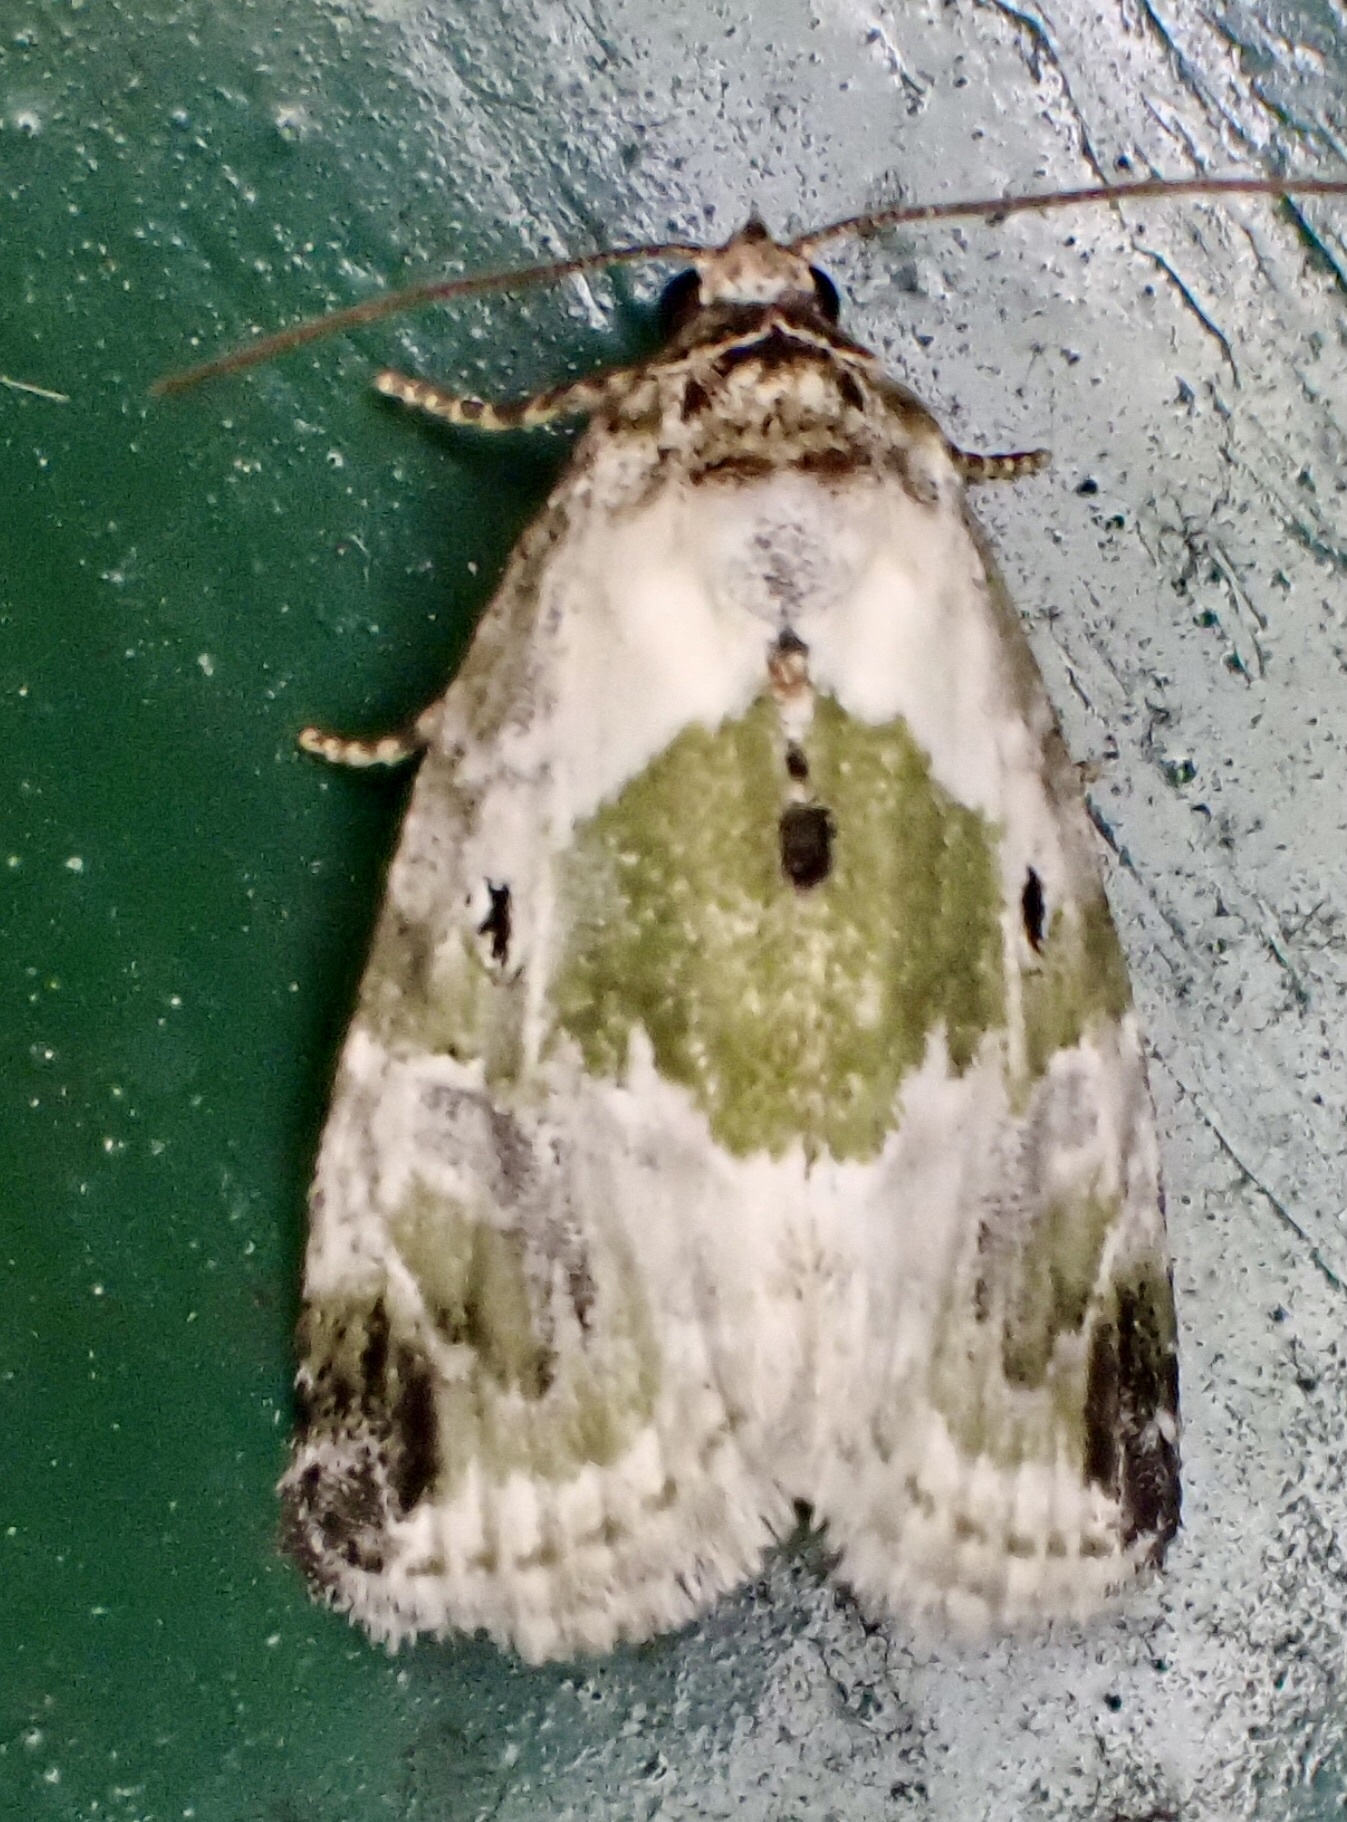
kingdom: Animalia
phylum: Arthropoda
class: Insecta
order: Lepidoptera
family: Noctuidae
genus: Maliattha
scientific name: Maliattha synochitis
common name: Black-dotted glyph
